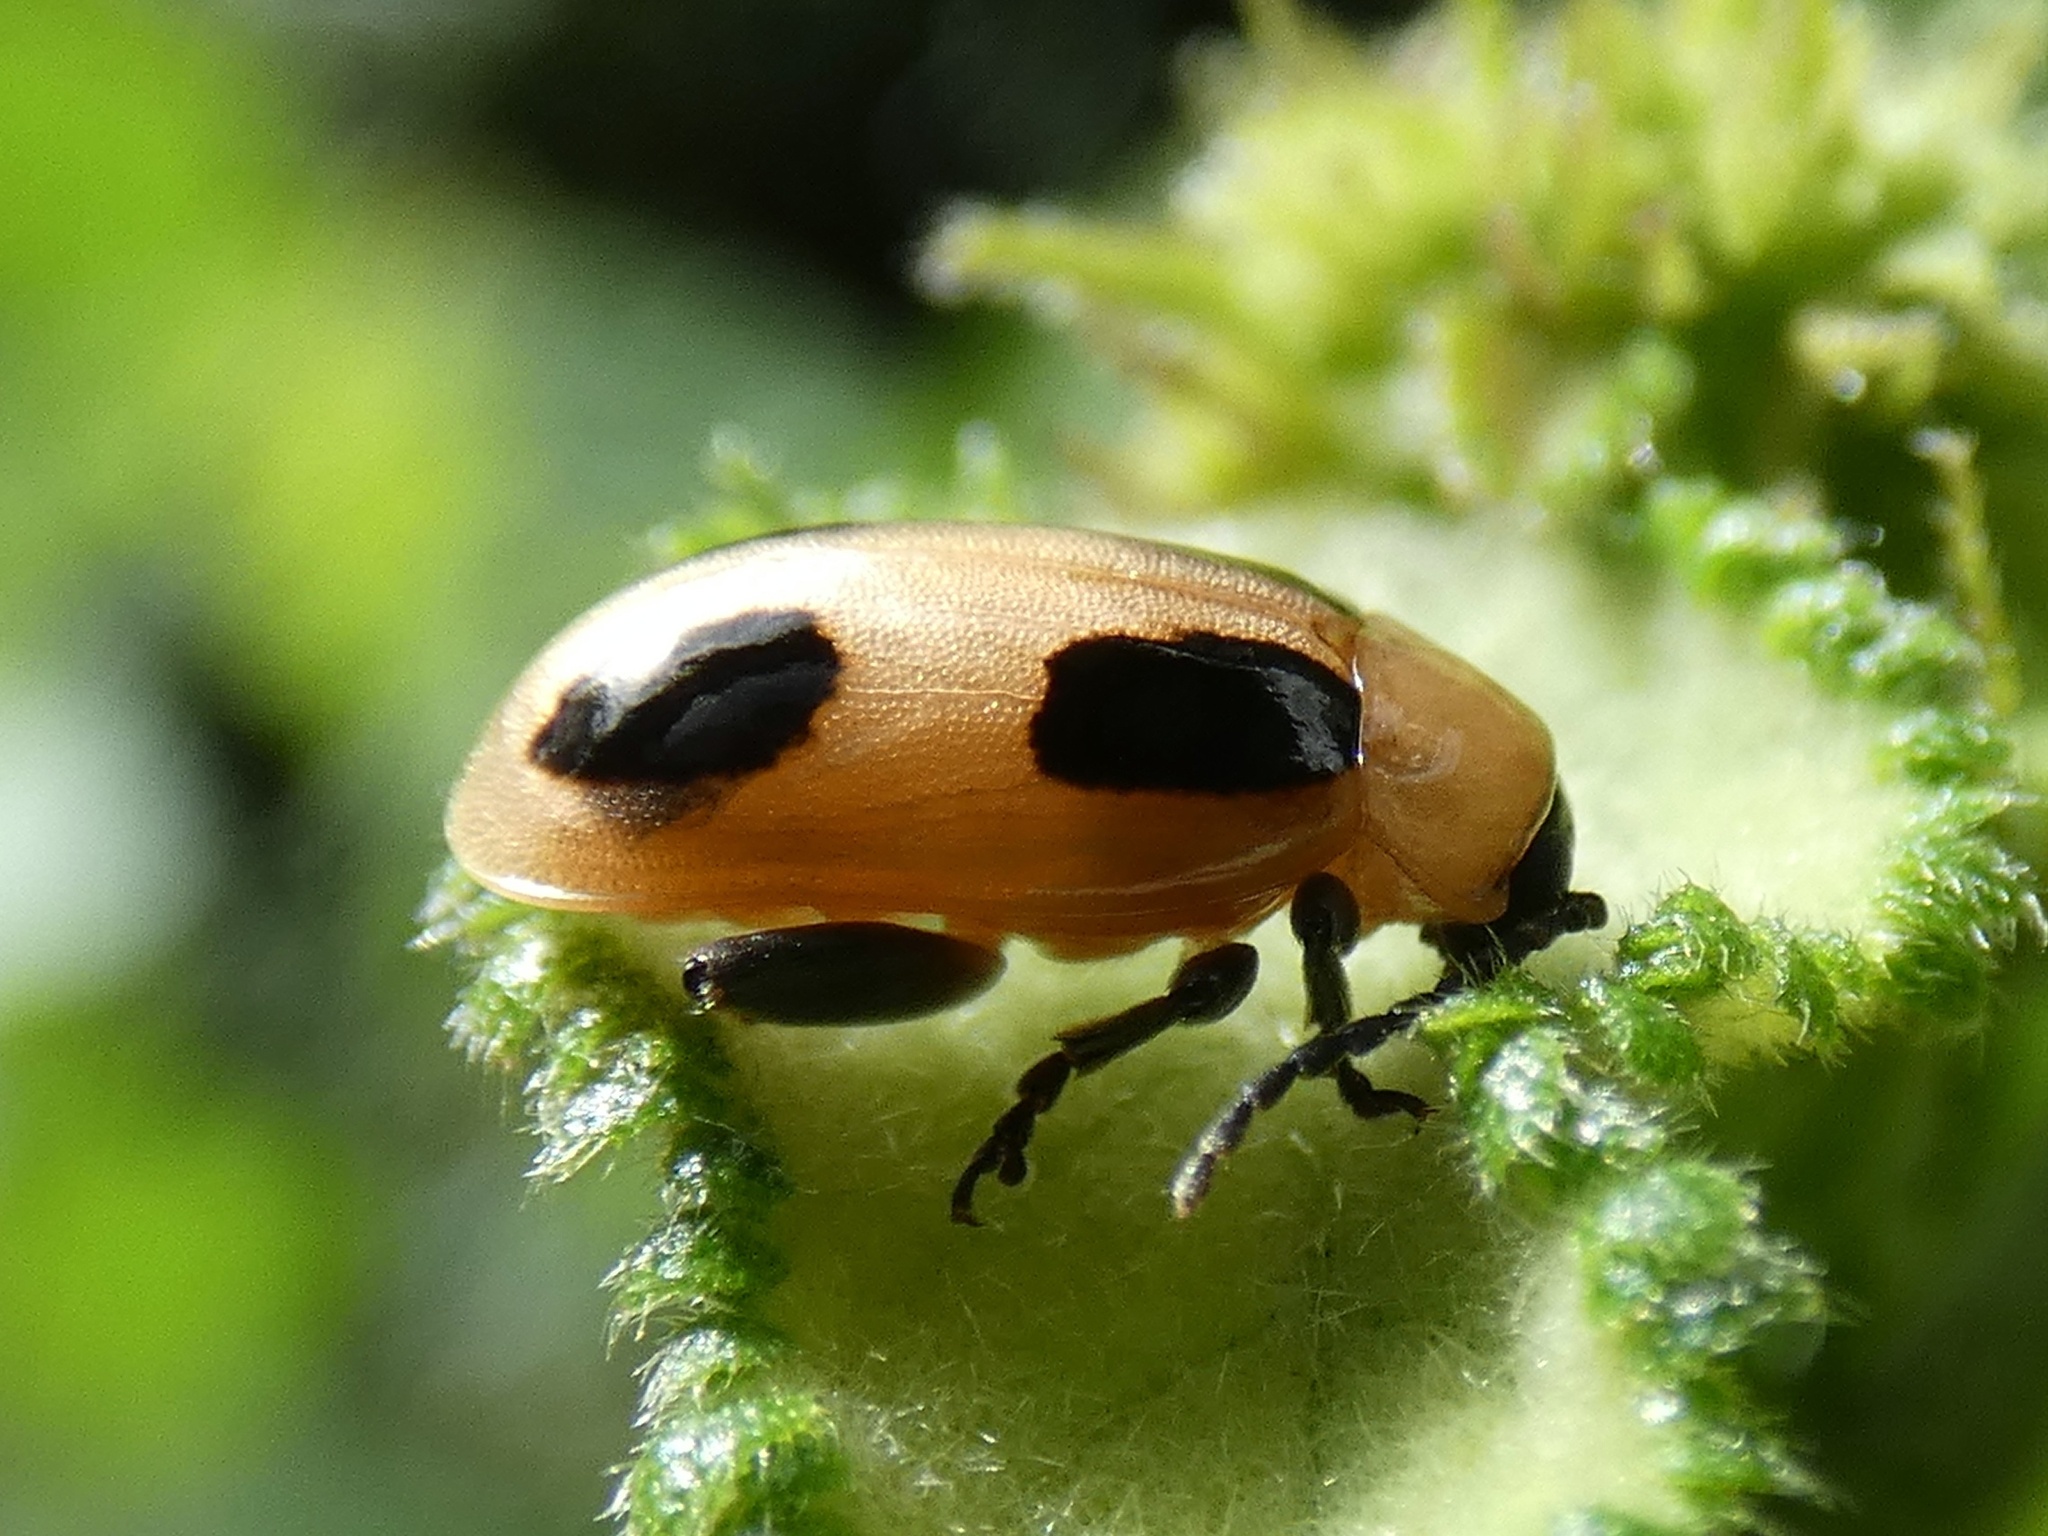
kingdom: Animalia
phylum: Arthropoda
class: Insecta
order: Coleoptera
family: Chrysomelidae
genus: Lacpatica
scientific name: Lacpatica
